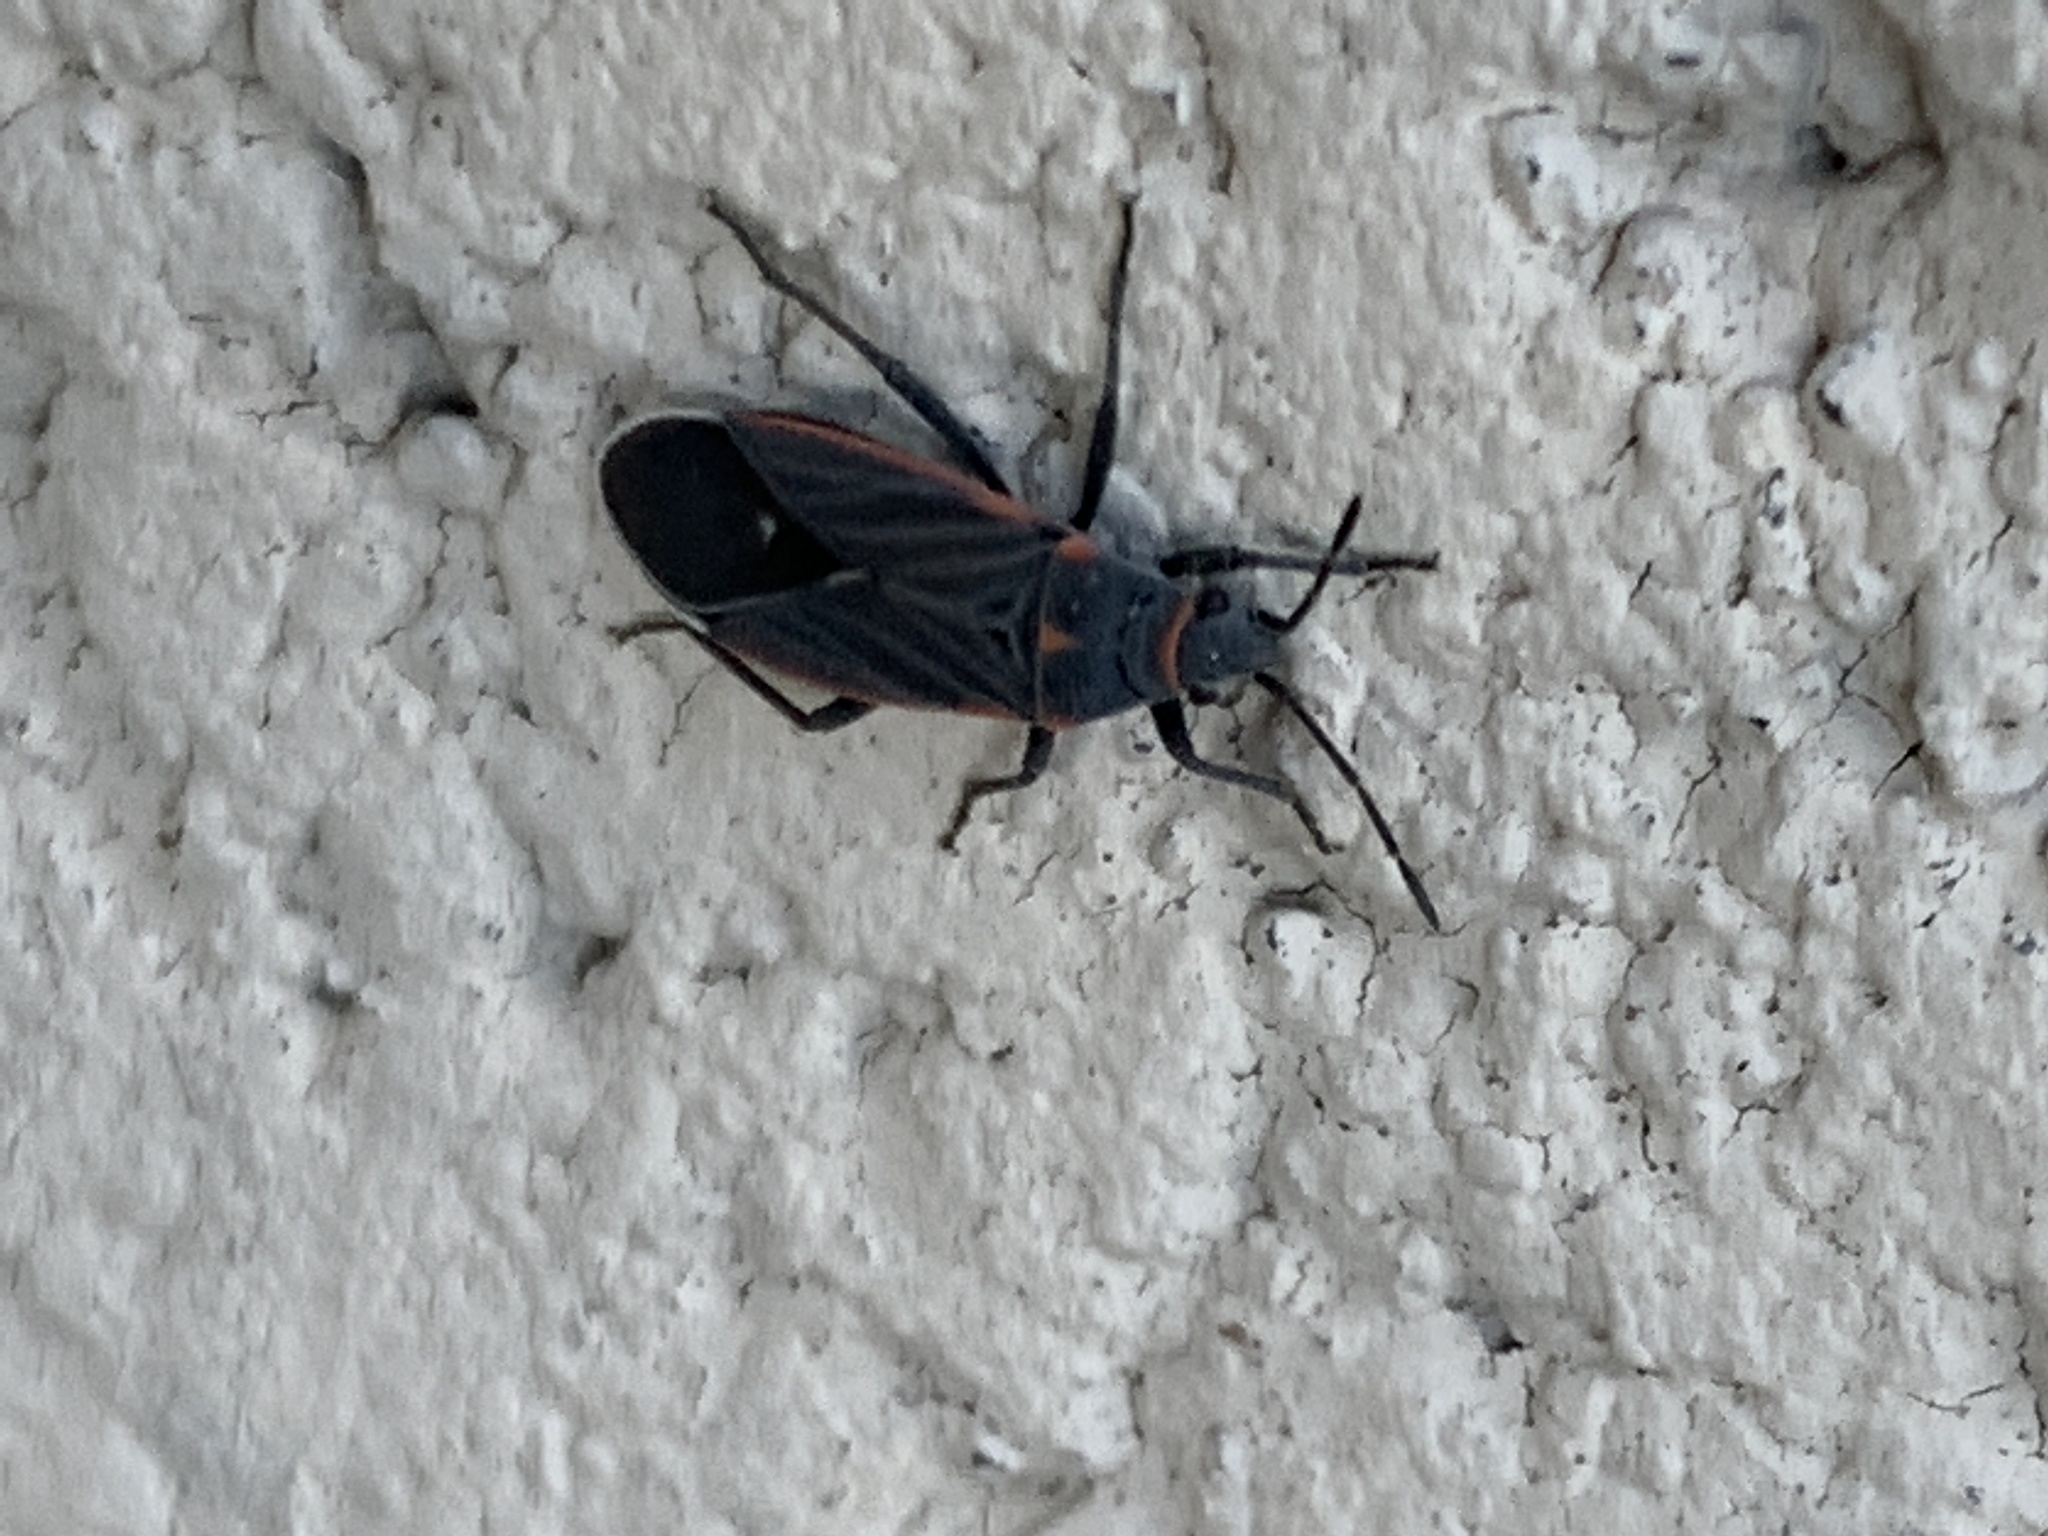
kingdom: Animalia
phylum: Arthropoda
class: Insecta
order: Hemiptera
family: Lygaeidae
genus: Melacoryphus
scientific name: Melacoryphus lateralis
